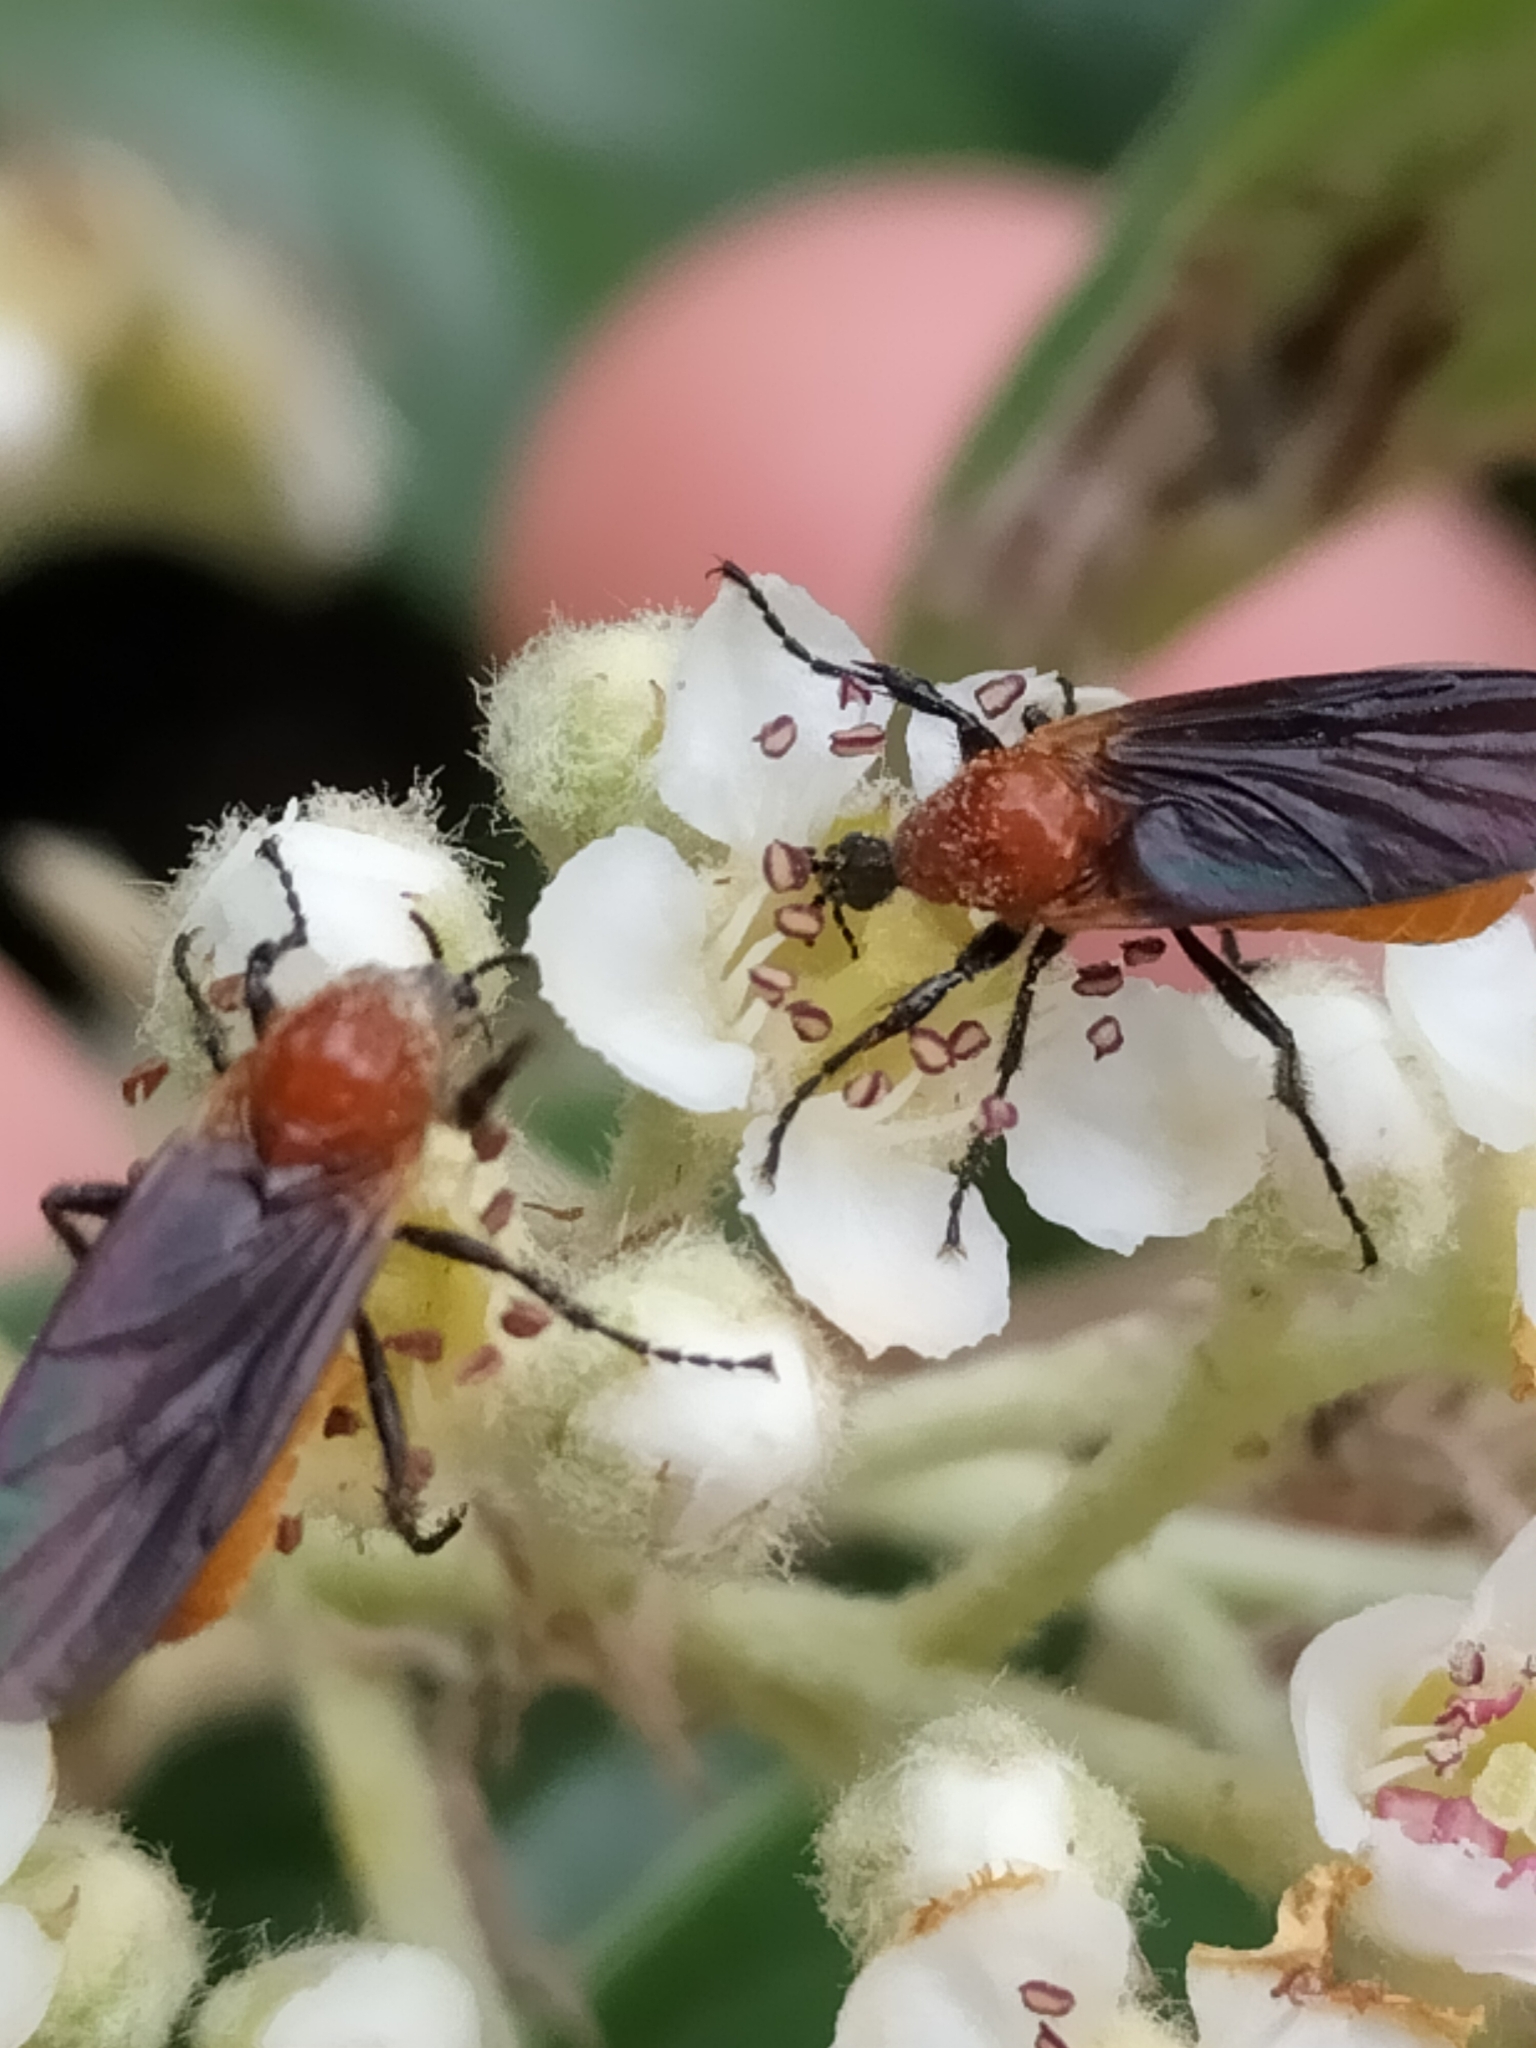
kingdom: Animalia
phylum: Arthropoda
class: Insecta
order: Diptera
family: Bibionidae
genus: Bibio
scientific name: Bibio imitator
